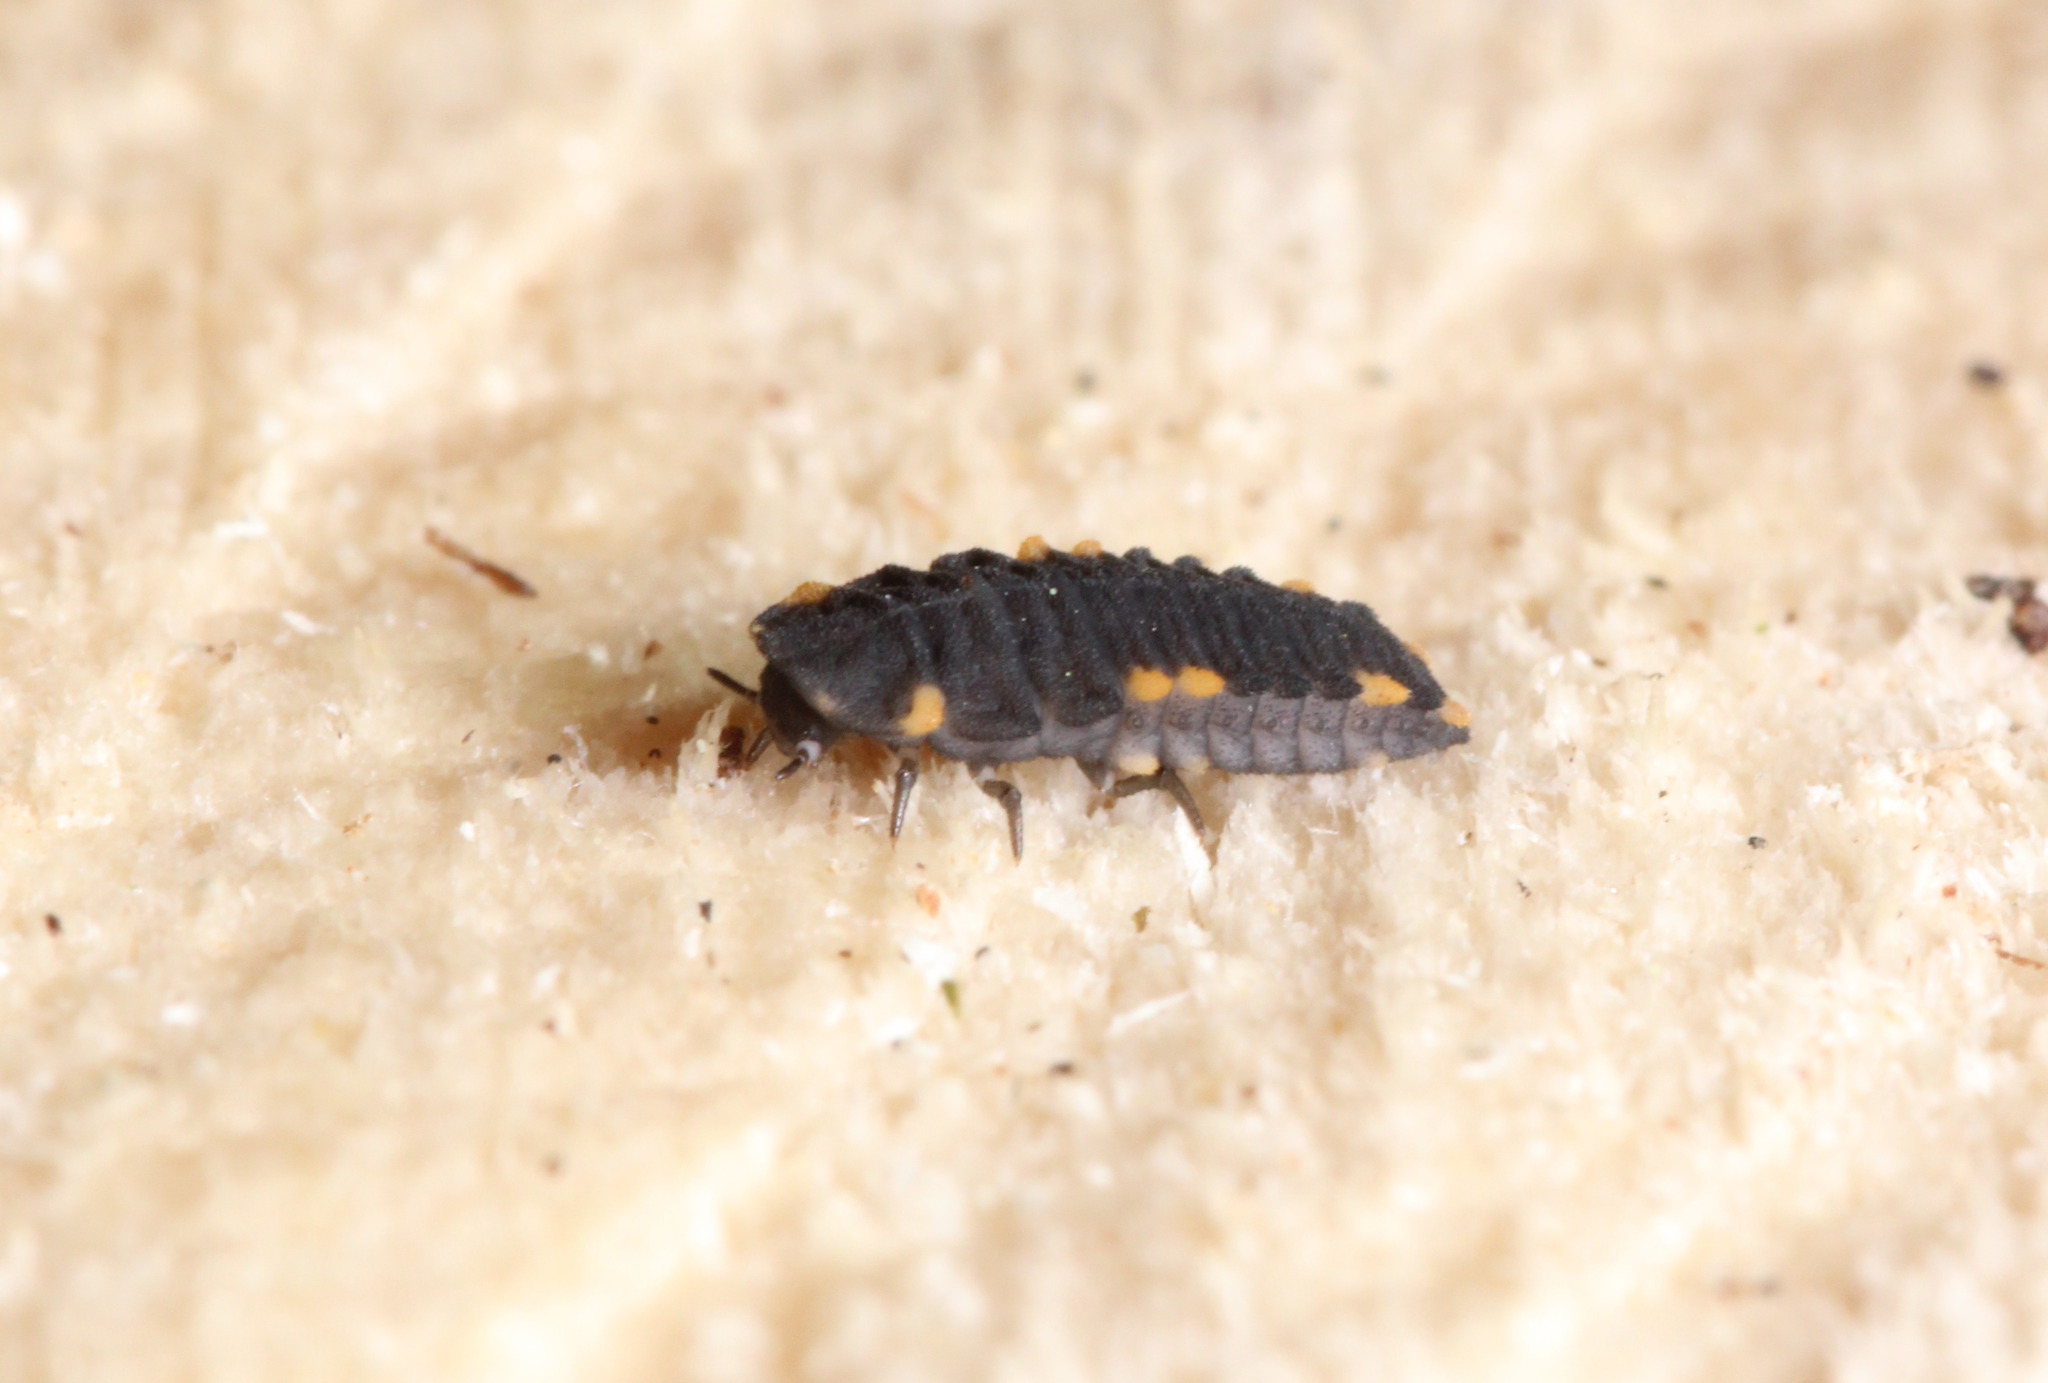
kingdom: Animalia
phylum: Arthropoda
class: Insecta
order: Coleoptera
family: Endomychidae
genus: Endomychus
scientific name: Endomychus coccineus
